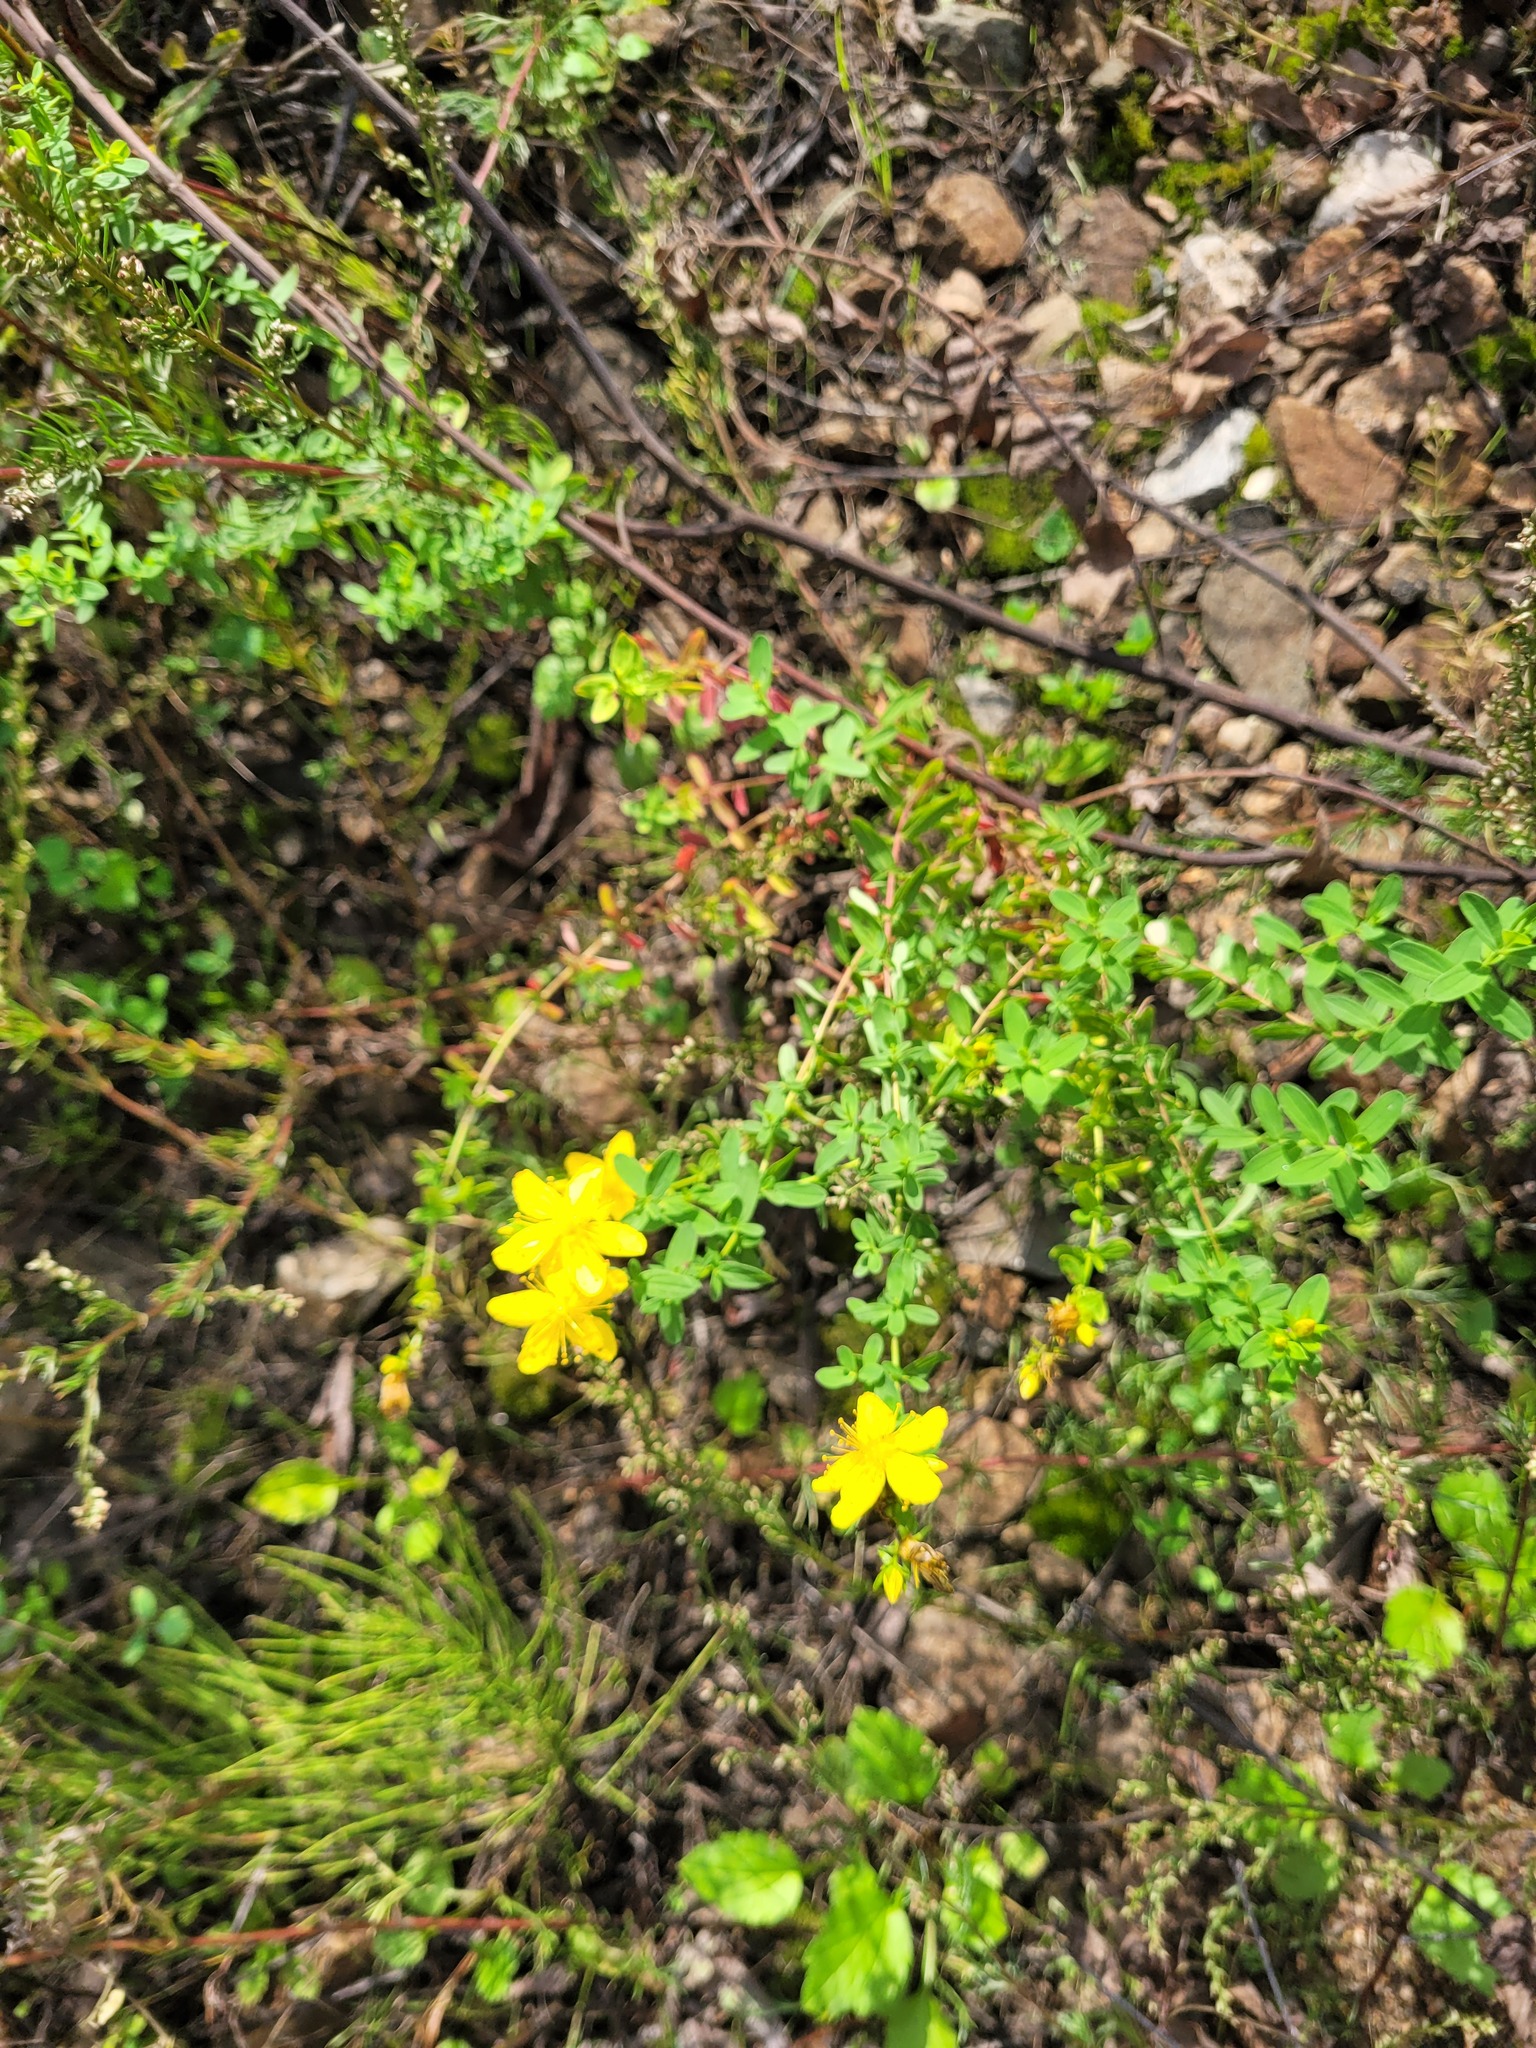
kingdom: Plantae
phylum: Tracheophyta
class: Magnoliopsida
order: Malpighiales
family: Hypericaceae
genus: Hypericum
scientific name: Hypericum perforatum
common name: Common st. johnswort
